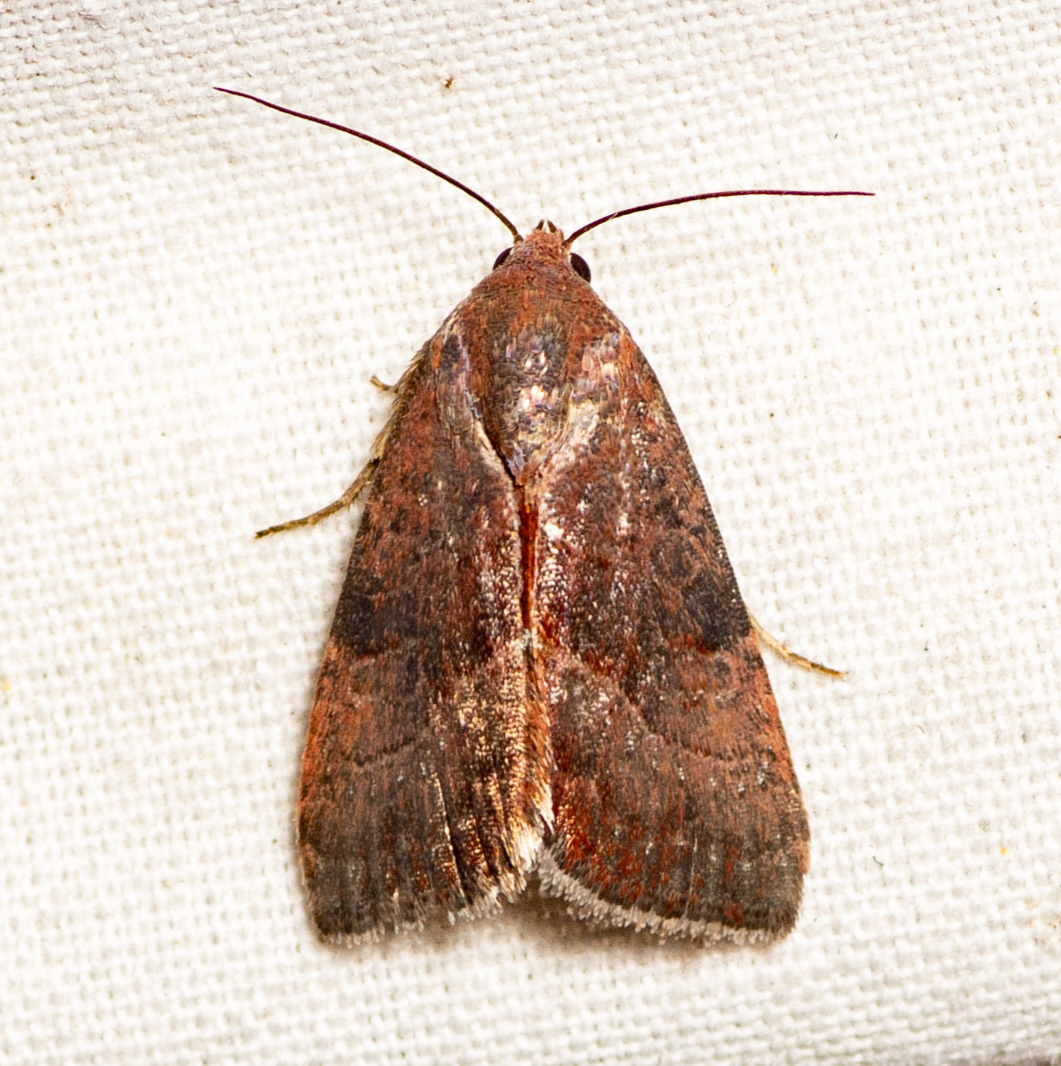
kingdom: Animalia
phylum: Arthropoda
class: Insecta
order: Lepidoptera
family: Noctuidae
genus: Galgula
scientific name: Galgula partita
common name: Wedgeling
